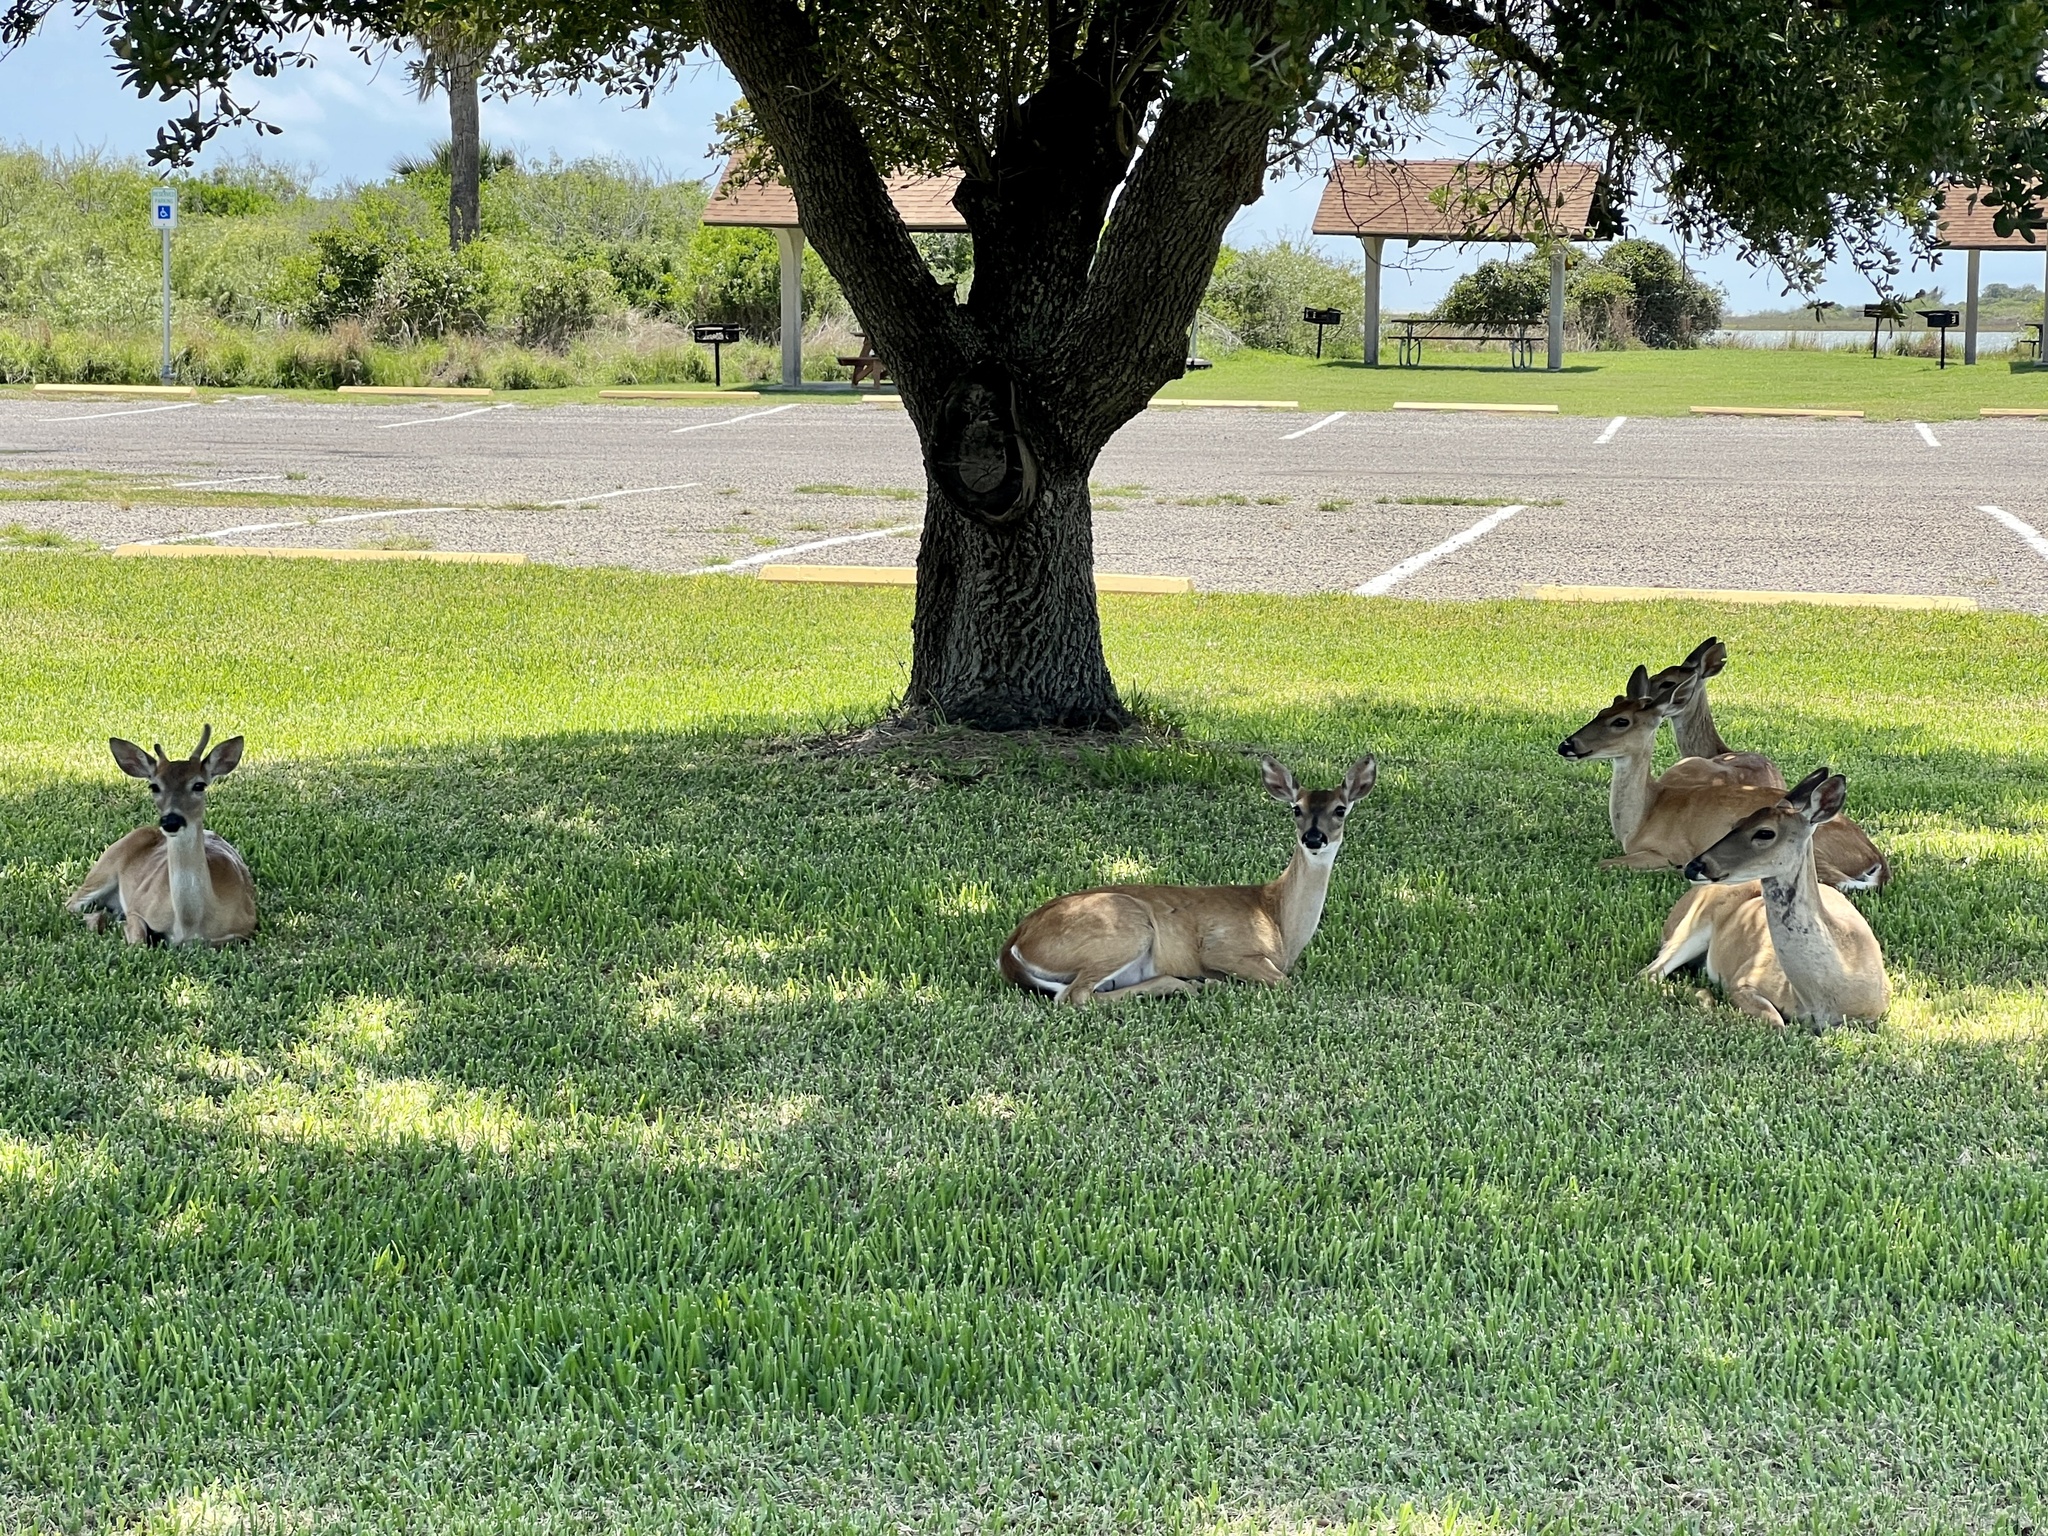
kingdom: Animalia
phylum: Chordata
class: Mammalia
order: Artiodactyla
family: Cervidae
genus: Odocoileus
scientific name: Odocoileus virginianus
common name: White-tailed deer
